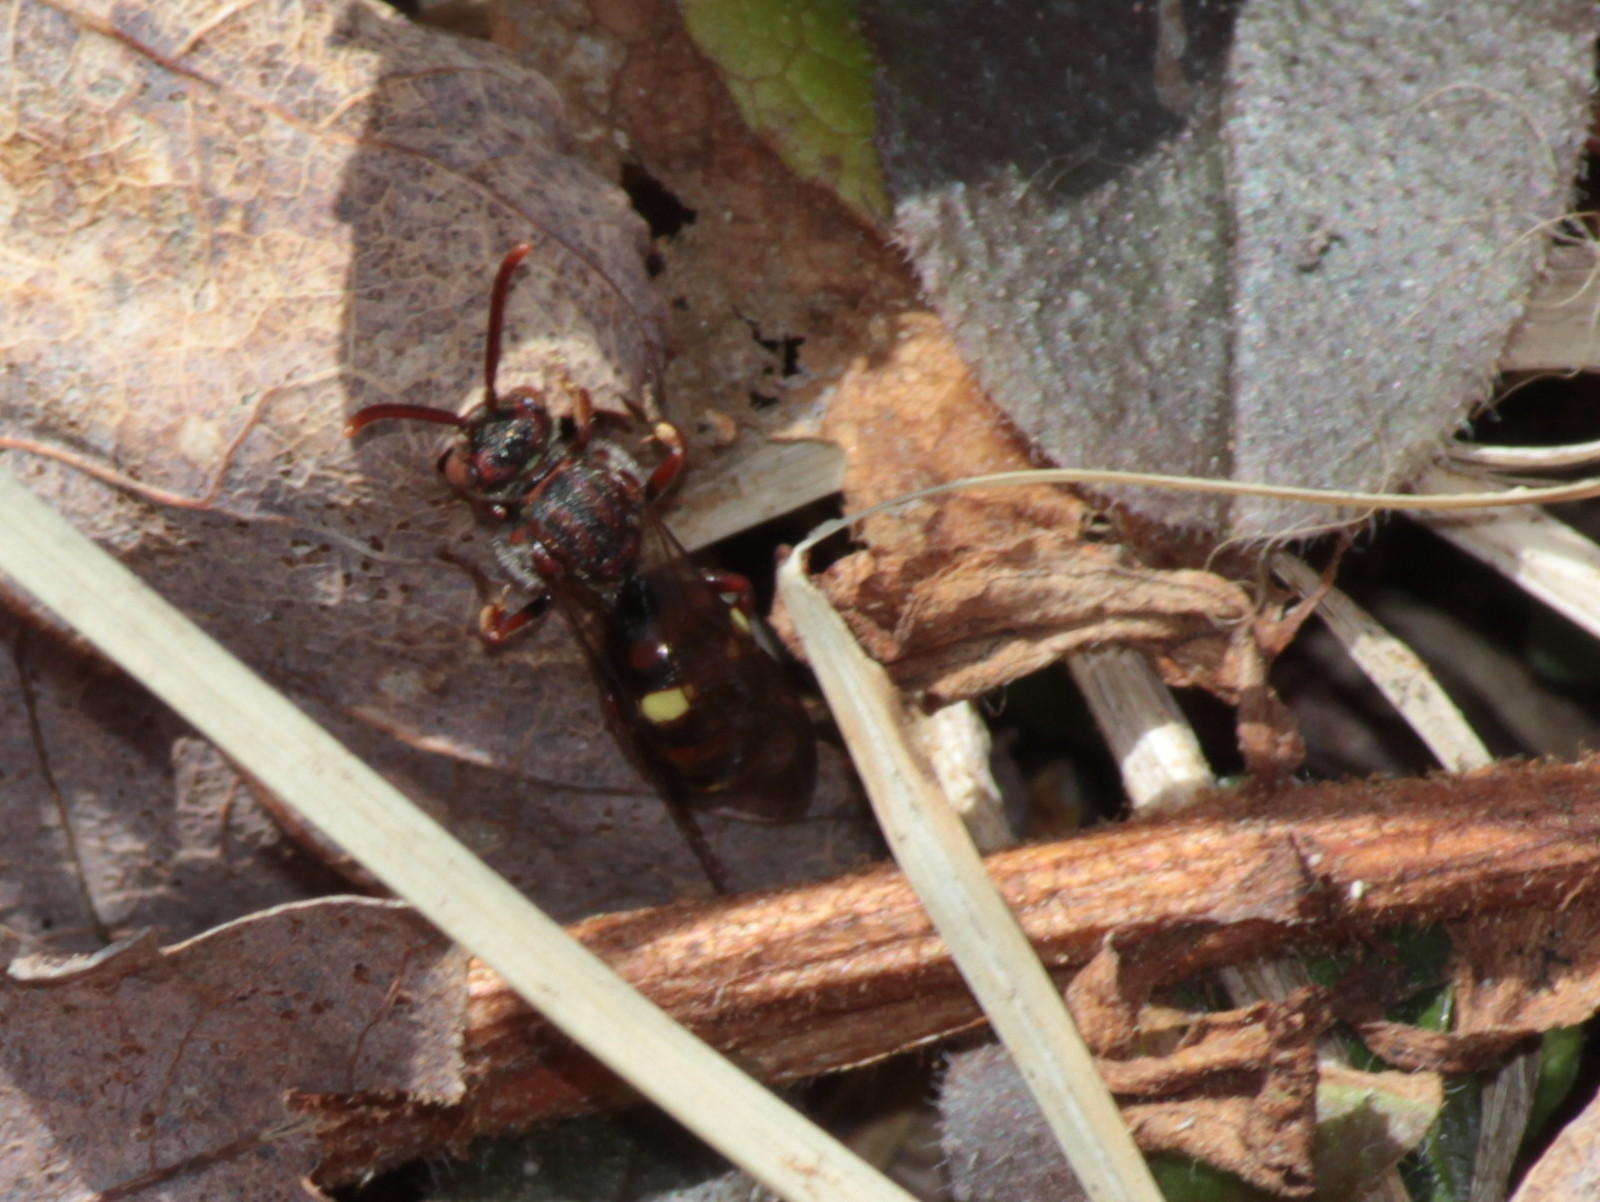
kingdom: Animalia
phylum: Arthropoda
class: Insecta
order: Hymenoptera
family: Apidae
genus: Nomada
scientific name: Nomada gracilis
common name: Slender cuckoo nomad bee
